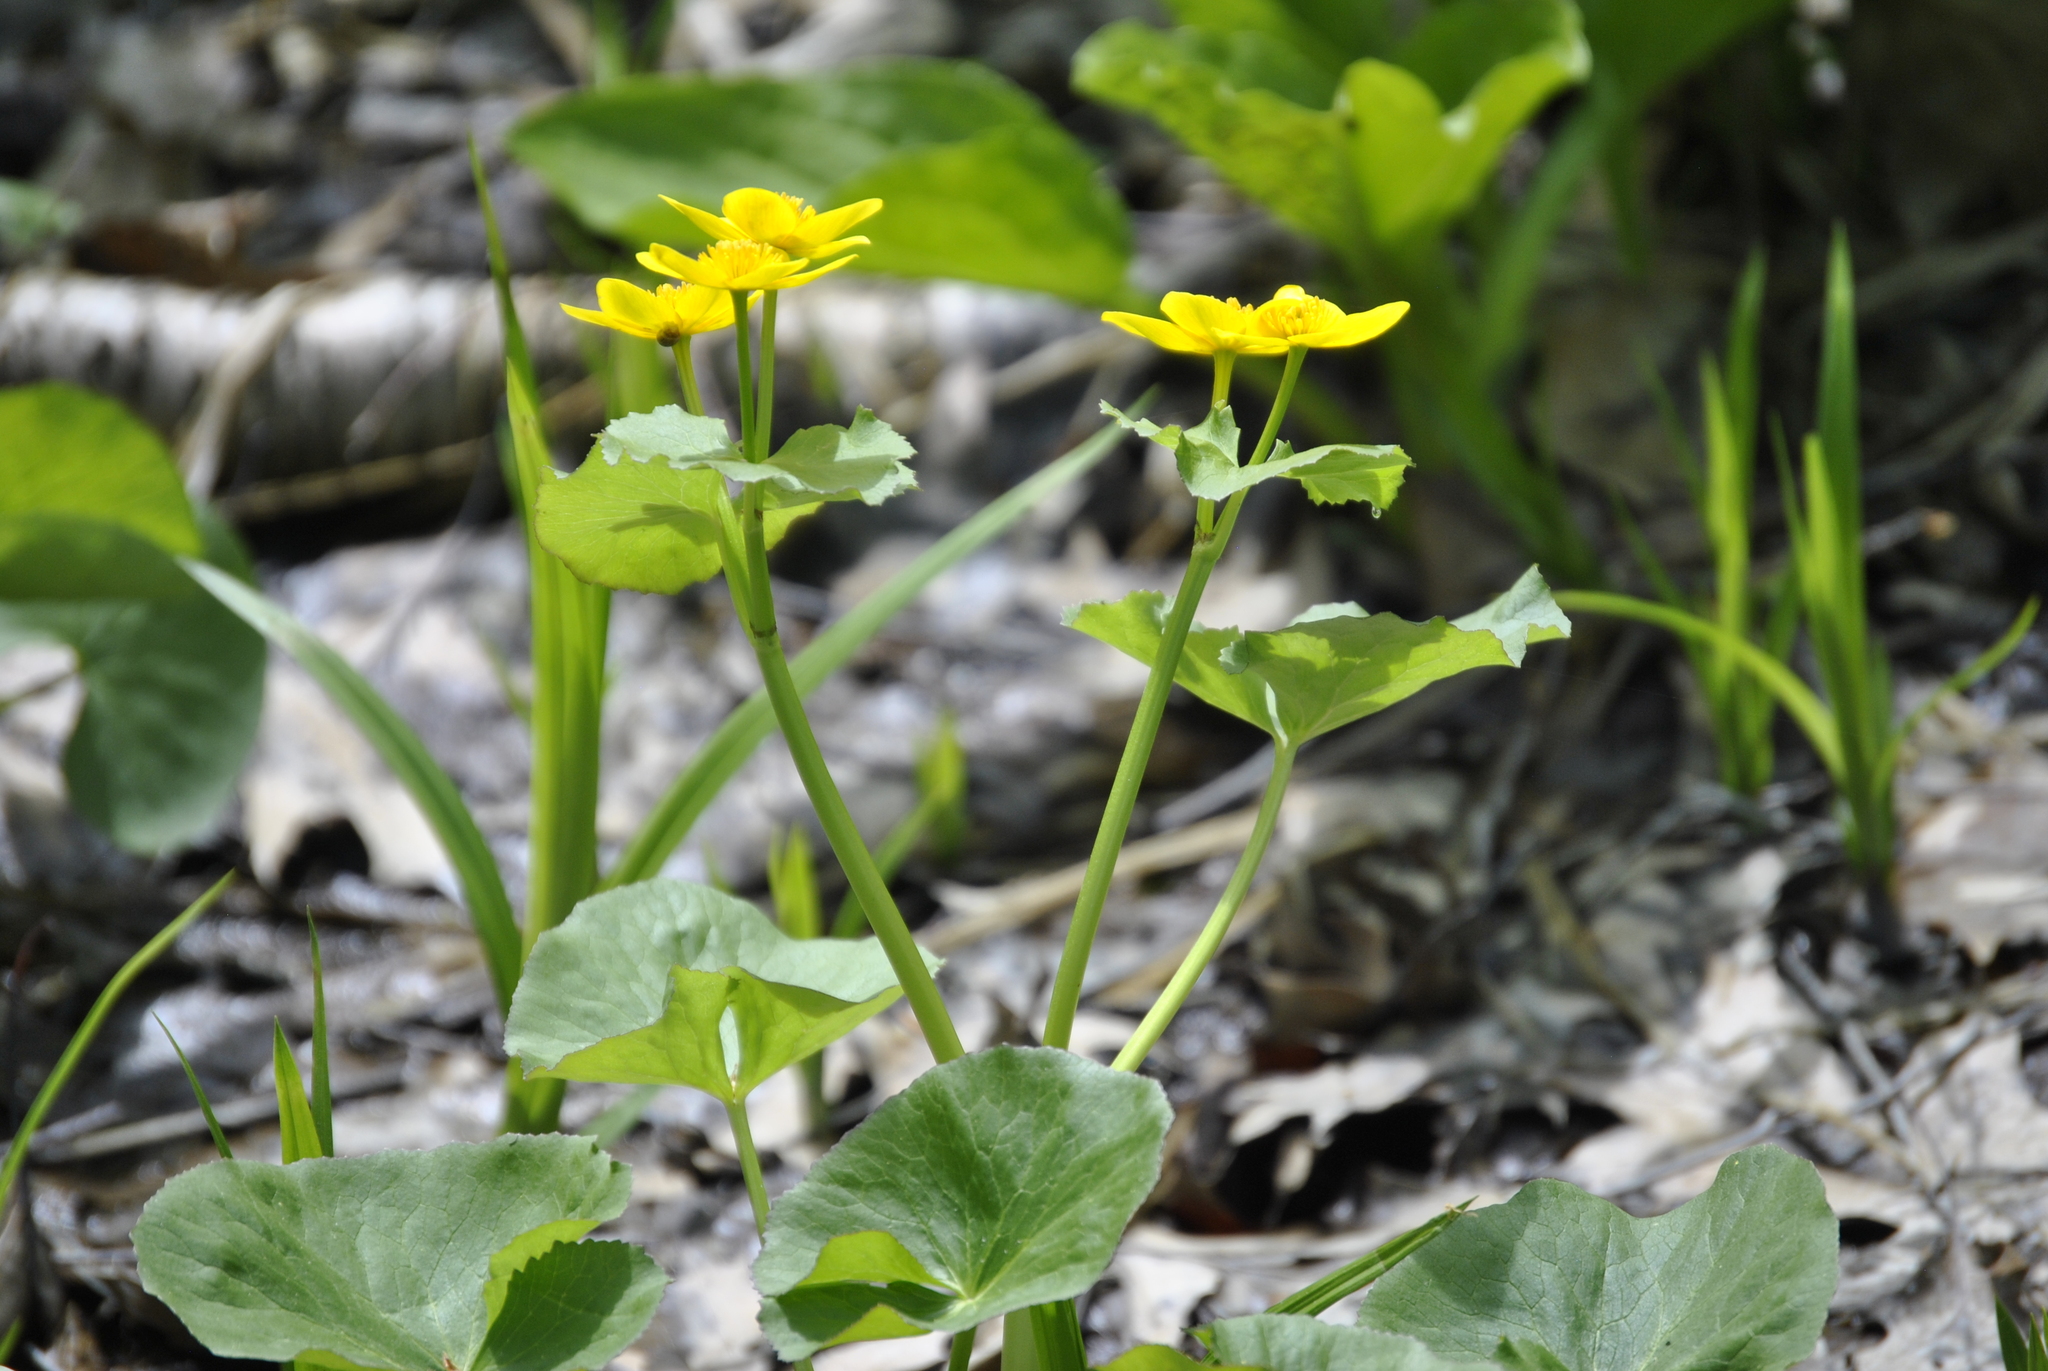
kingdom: Plantae
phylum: Tracheophyta
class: Magnoliopsida
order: Ranunculales
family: Ranunculaceae
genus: Caltha
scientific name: Caltha palustris
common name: Marsh marigold
